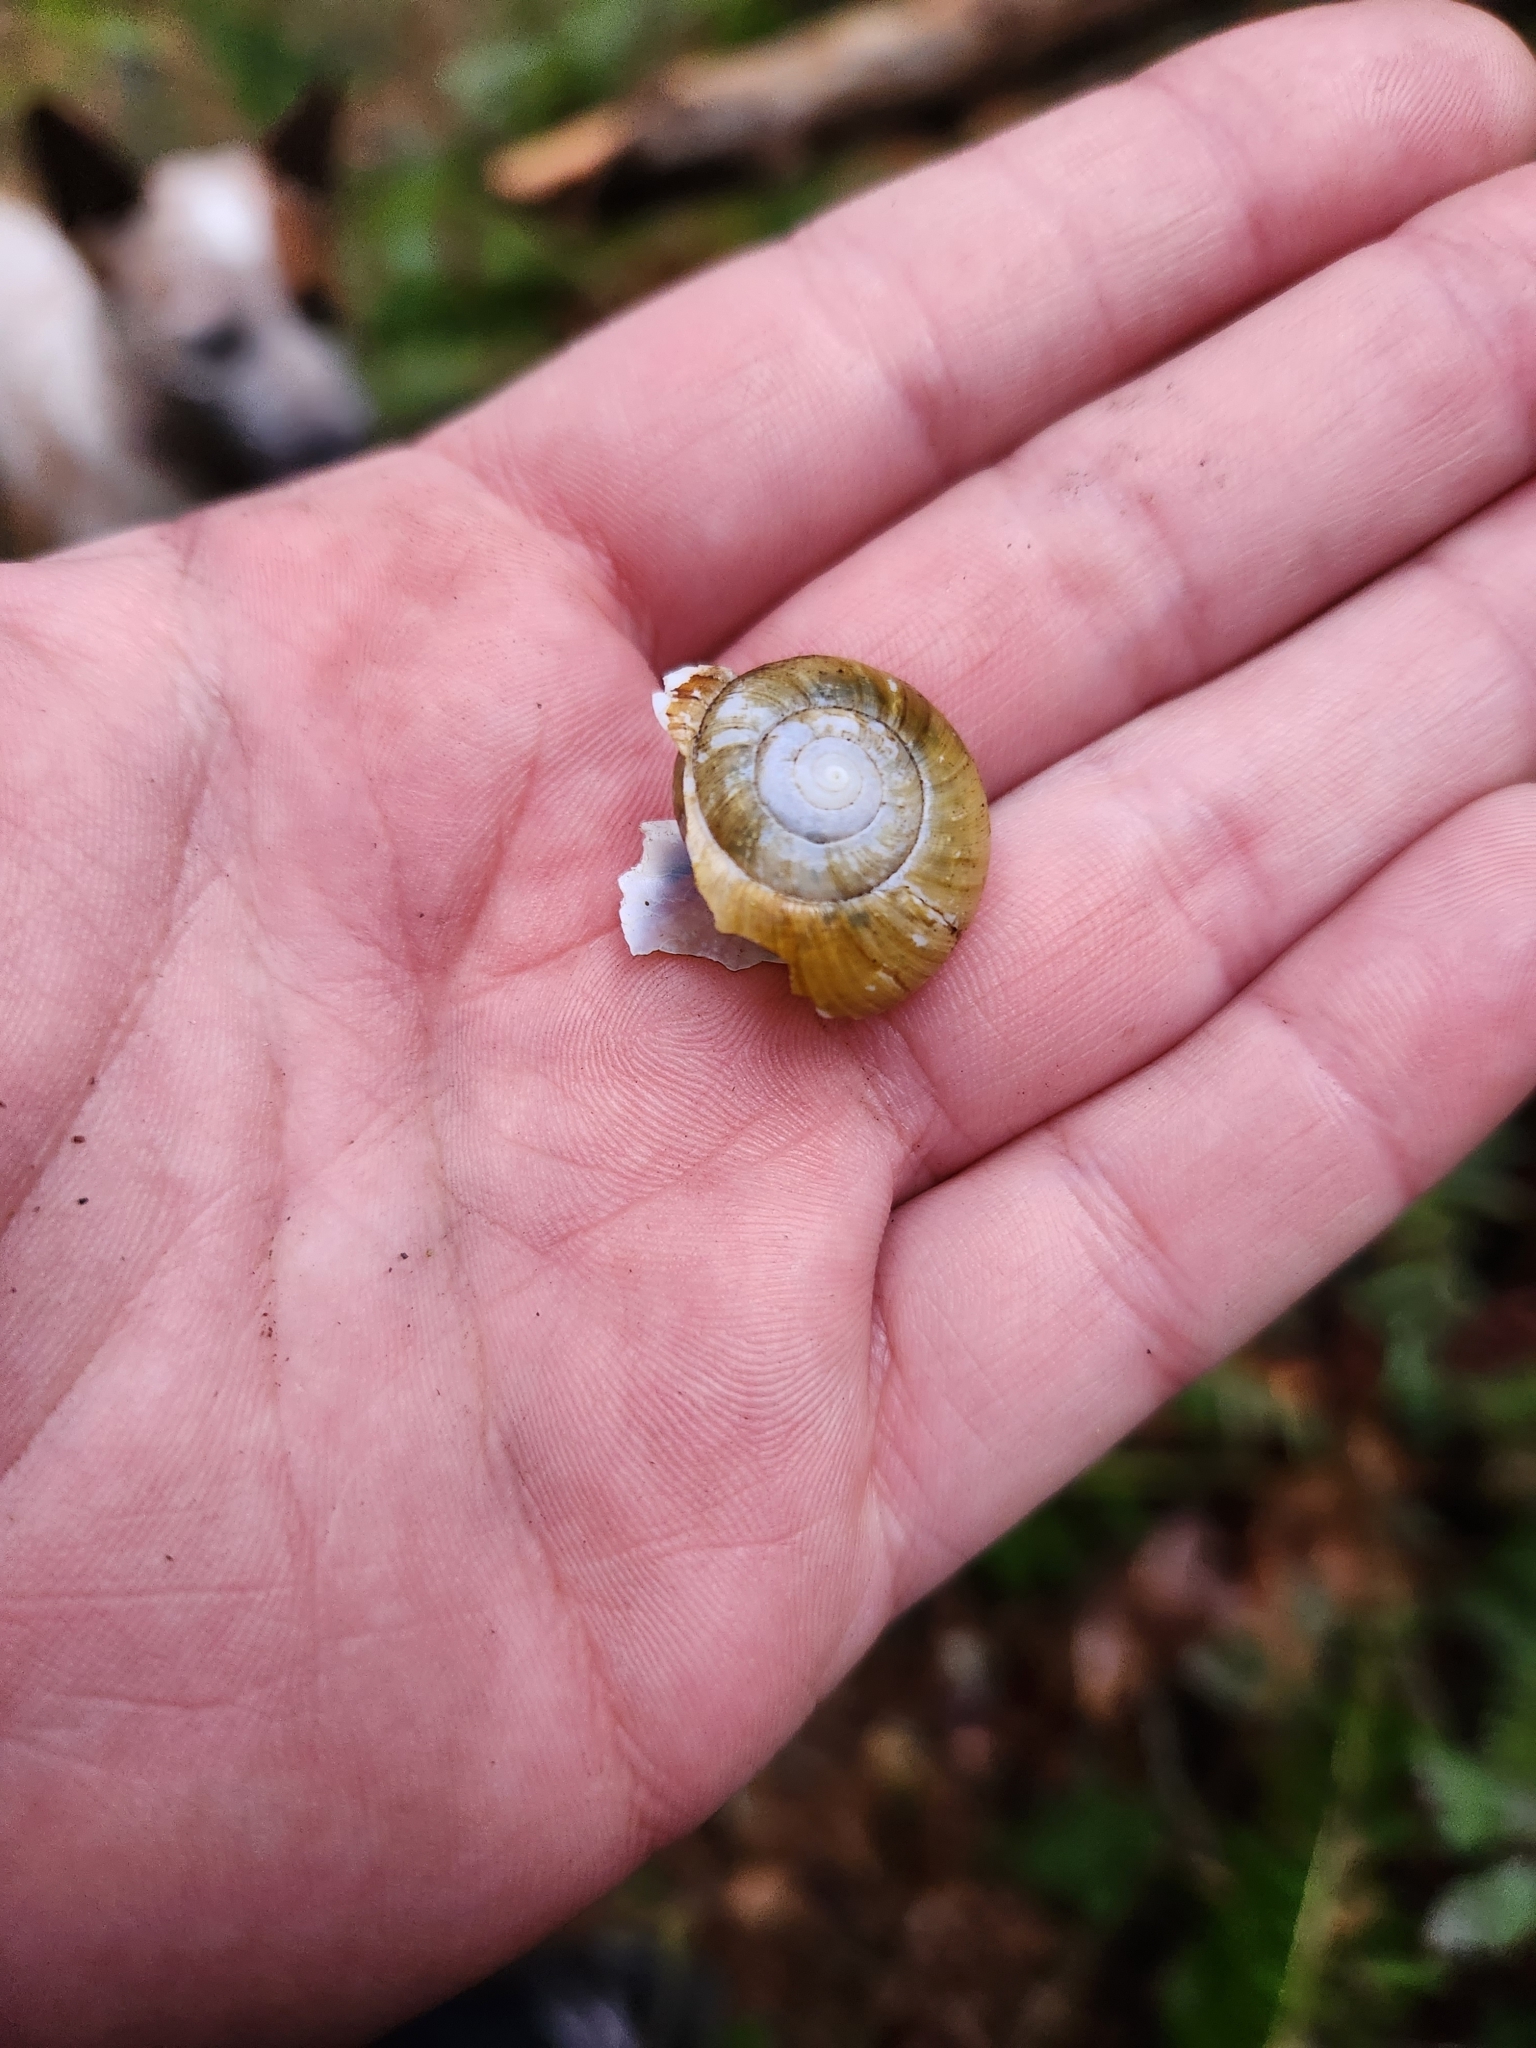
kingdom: Animalia
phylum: Mollusca
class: Gastropoda
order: Stylommatophora
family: Haplotrematidae
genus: Haplotrema
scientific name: Haplotrema vancouverense
